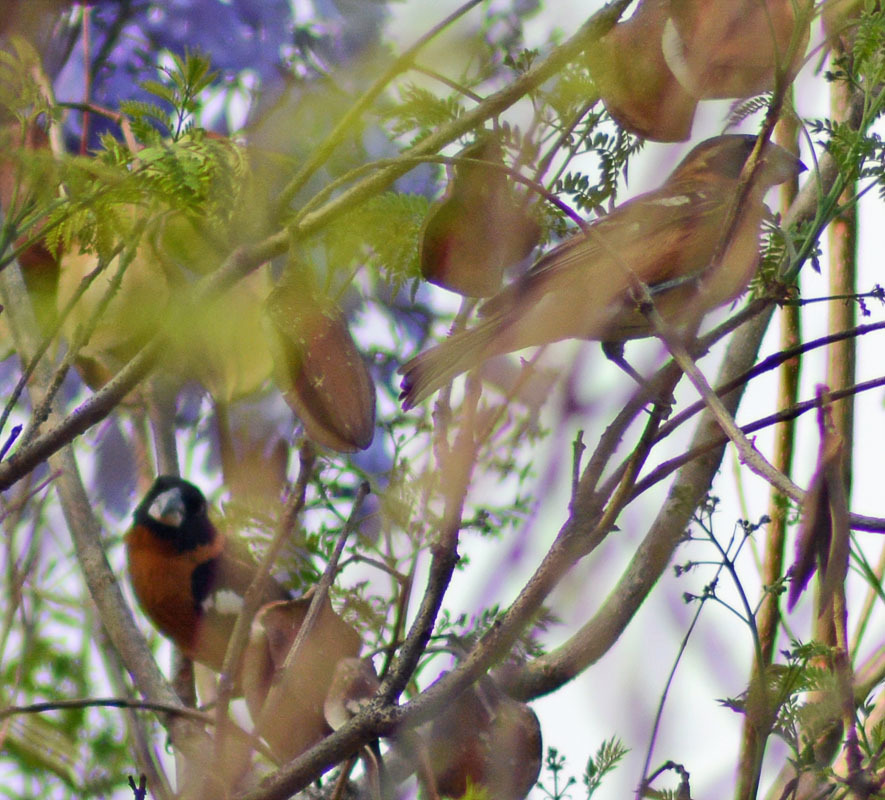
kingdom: Animalia
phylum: Chordata
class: Aves
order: Passeriformes
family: Cardinalidae
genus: Pheucticus
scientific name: Pheucticus melanocephalus
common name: Black-headed grosbeak
